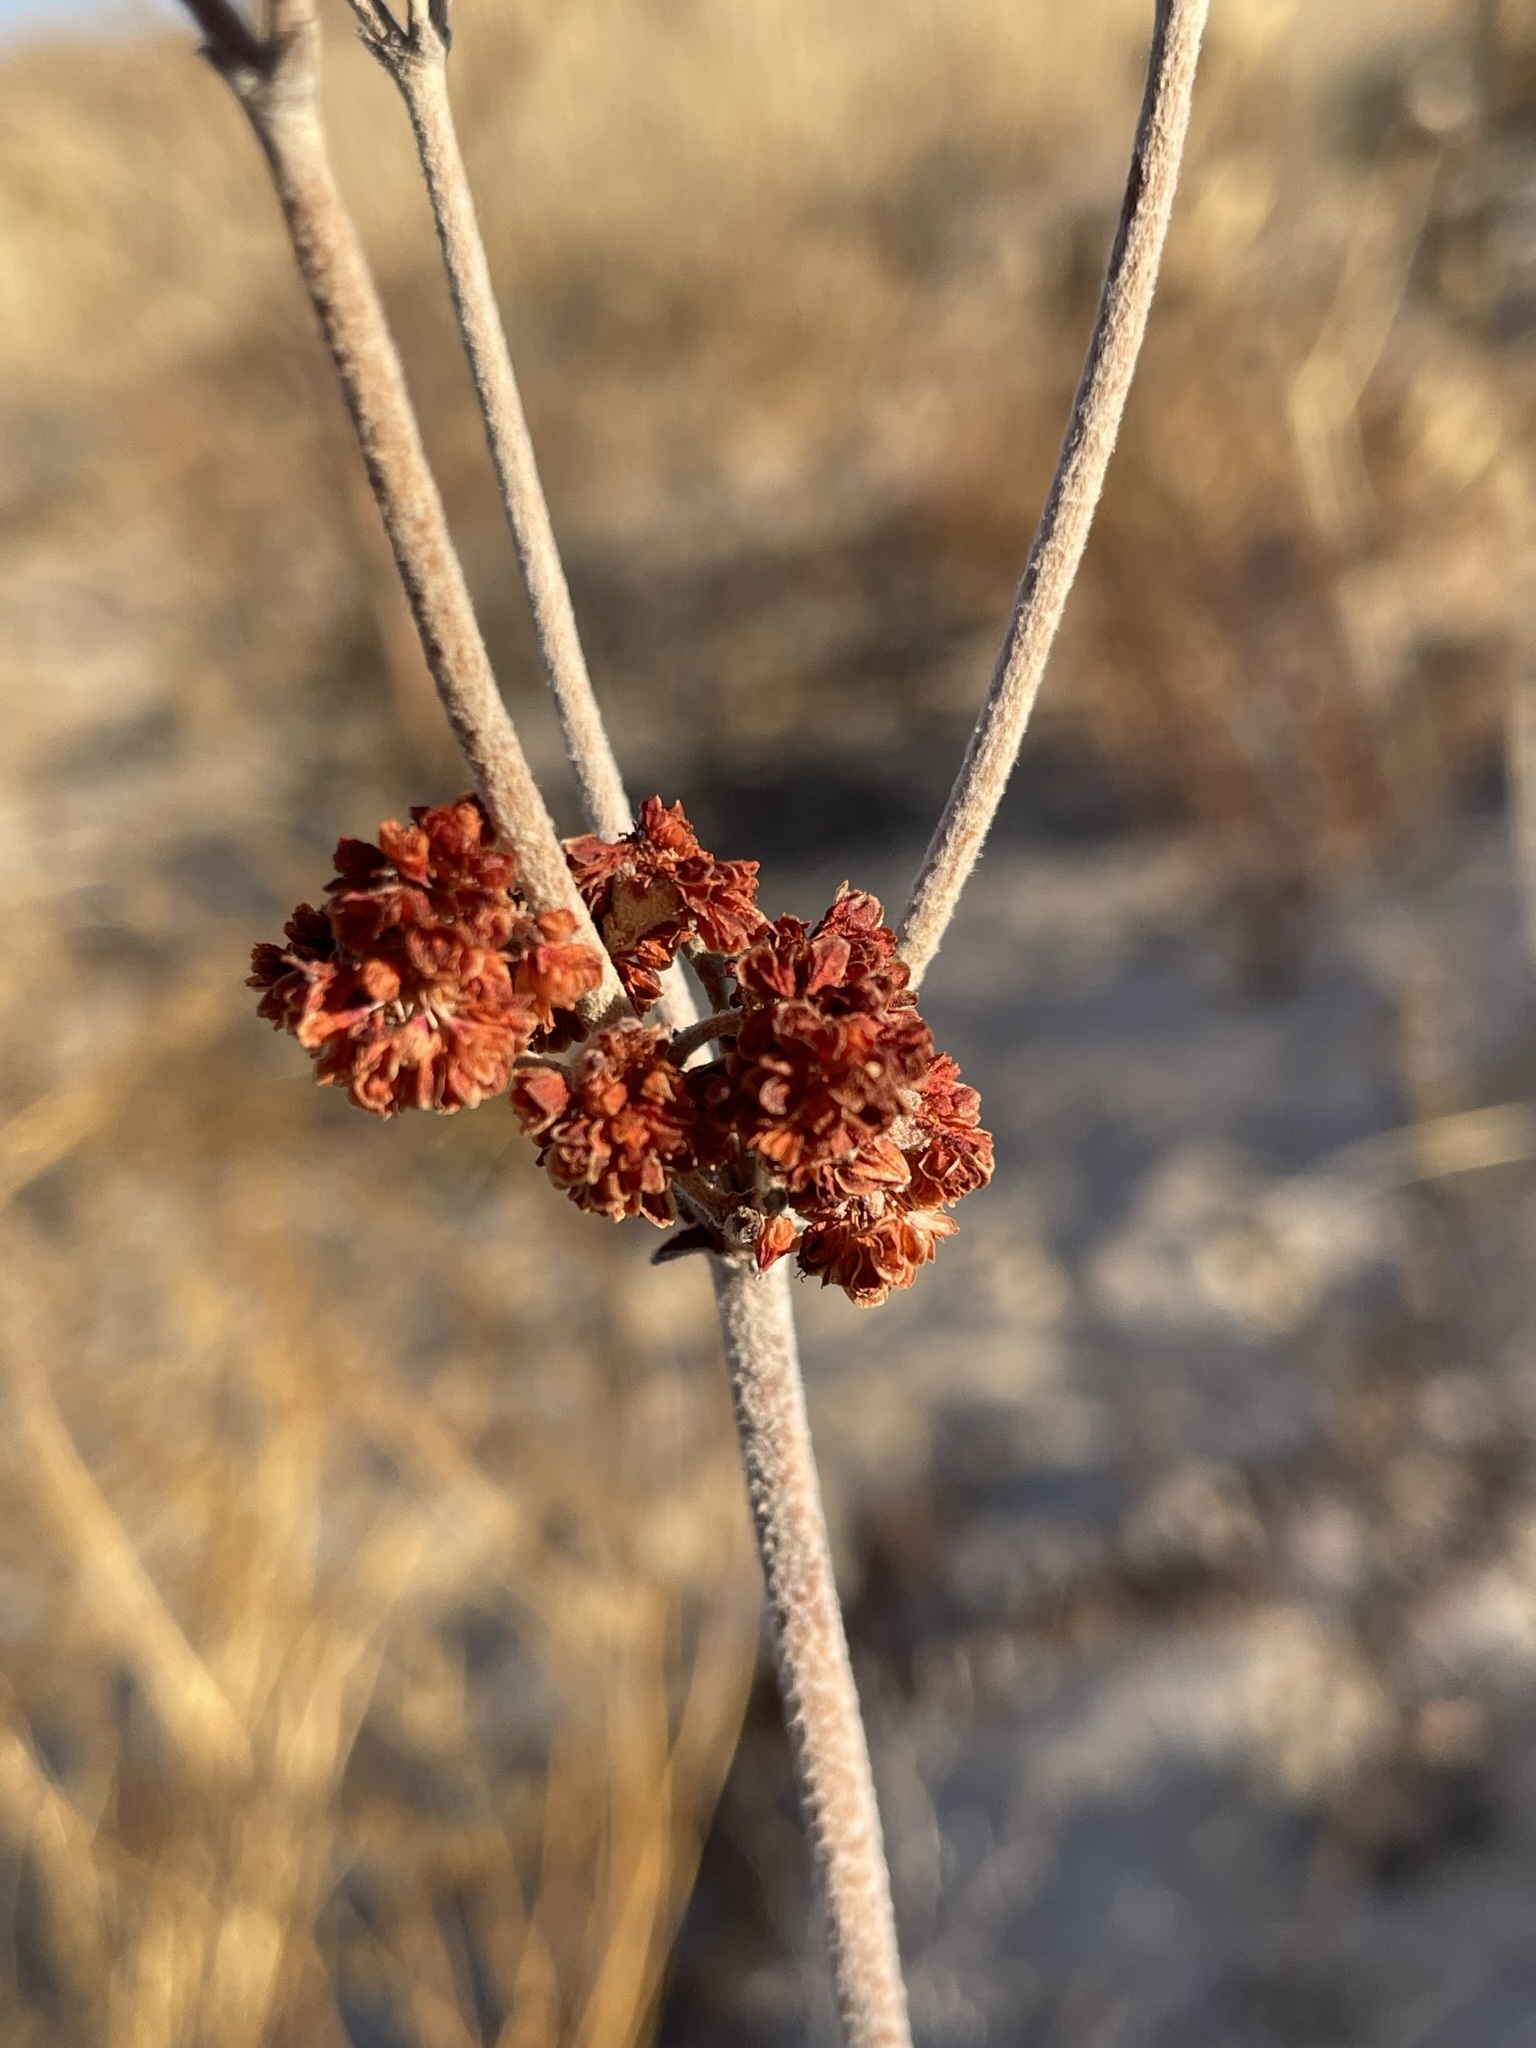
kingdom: Plantae
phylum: Tracheophyta
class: Magnoliopsida
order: Caryophyllales
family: Polygonaceae
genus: Eriogonum
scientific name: Eriogonum annuum
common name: Annual wild buckwheat
